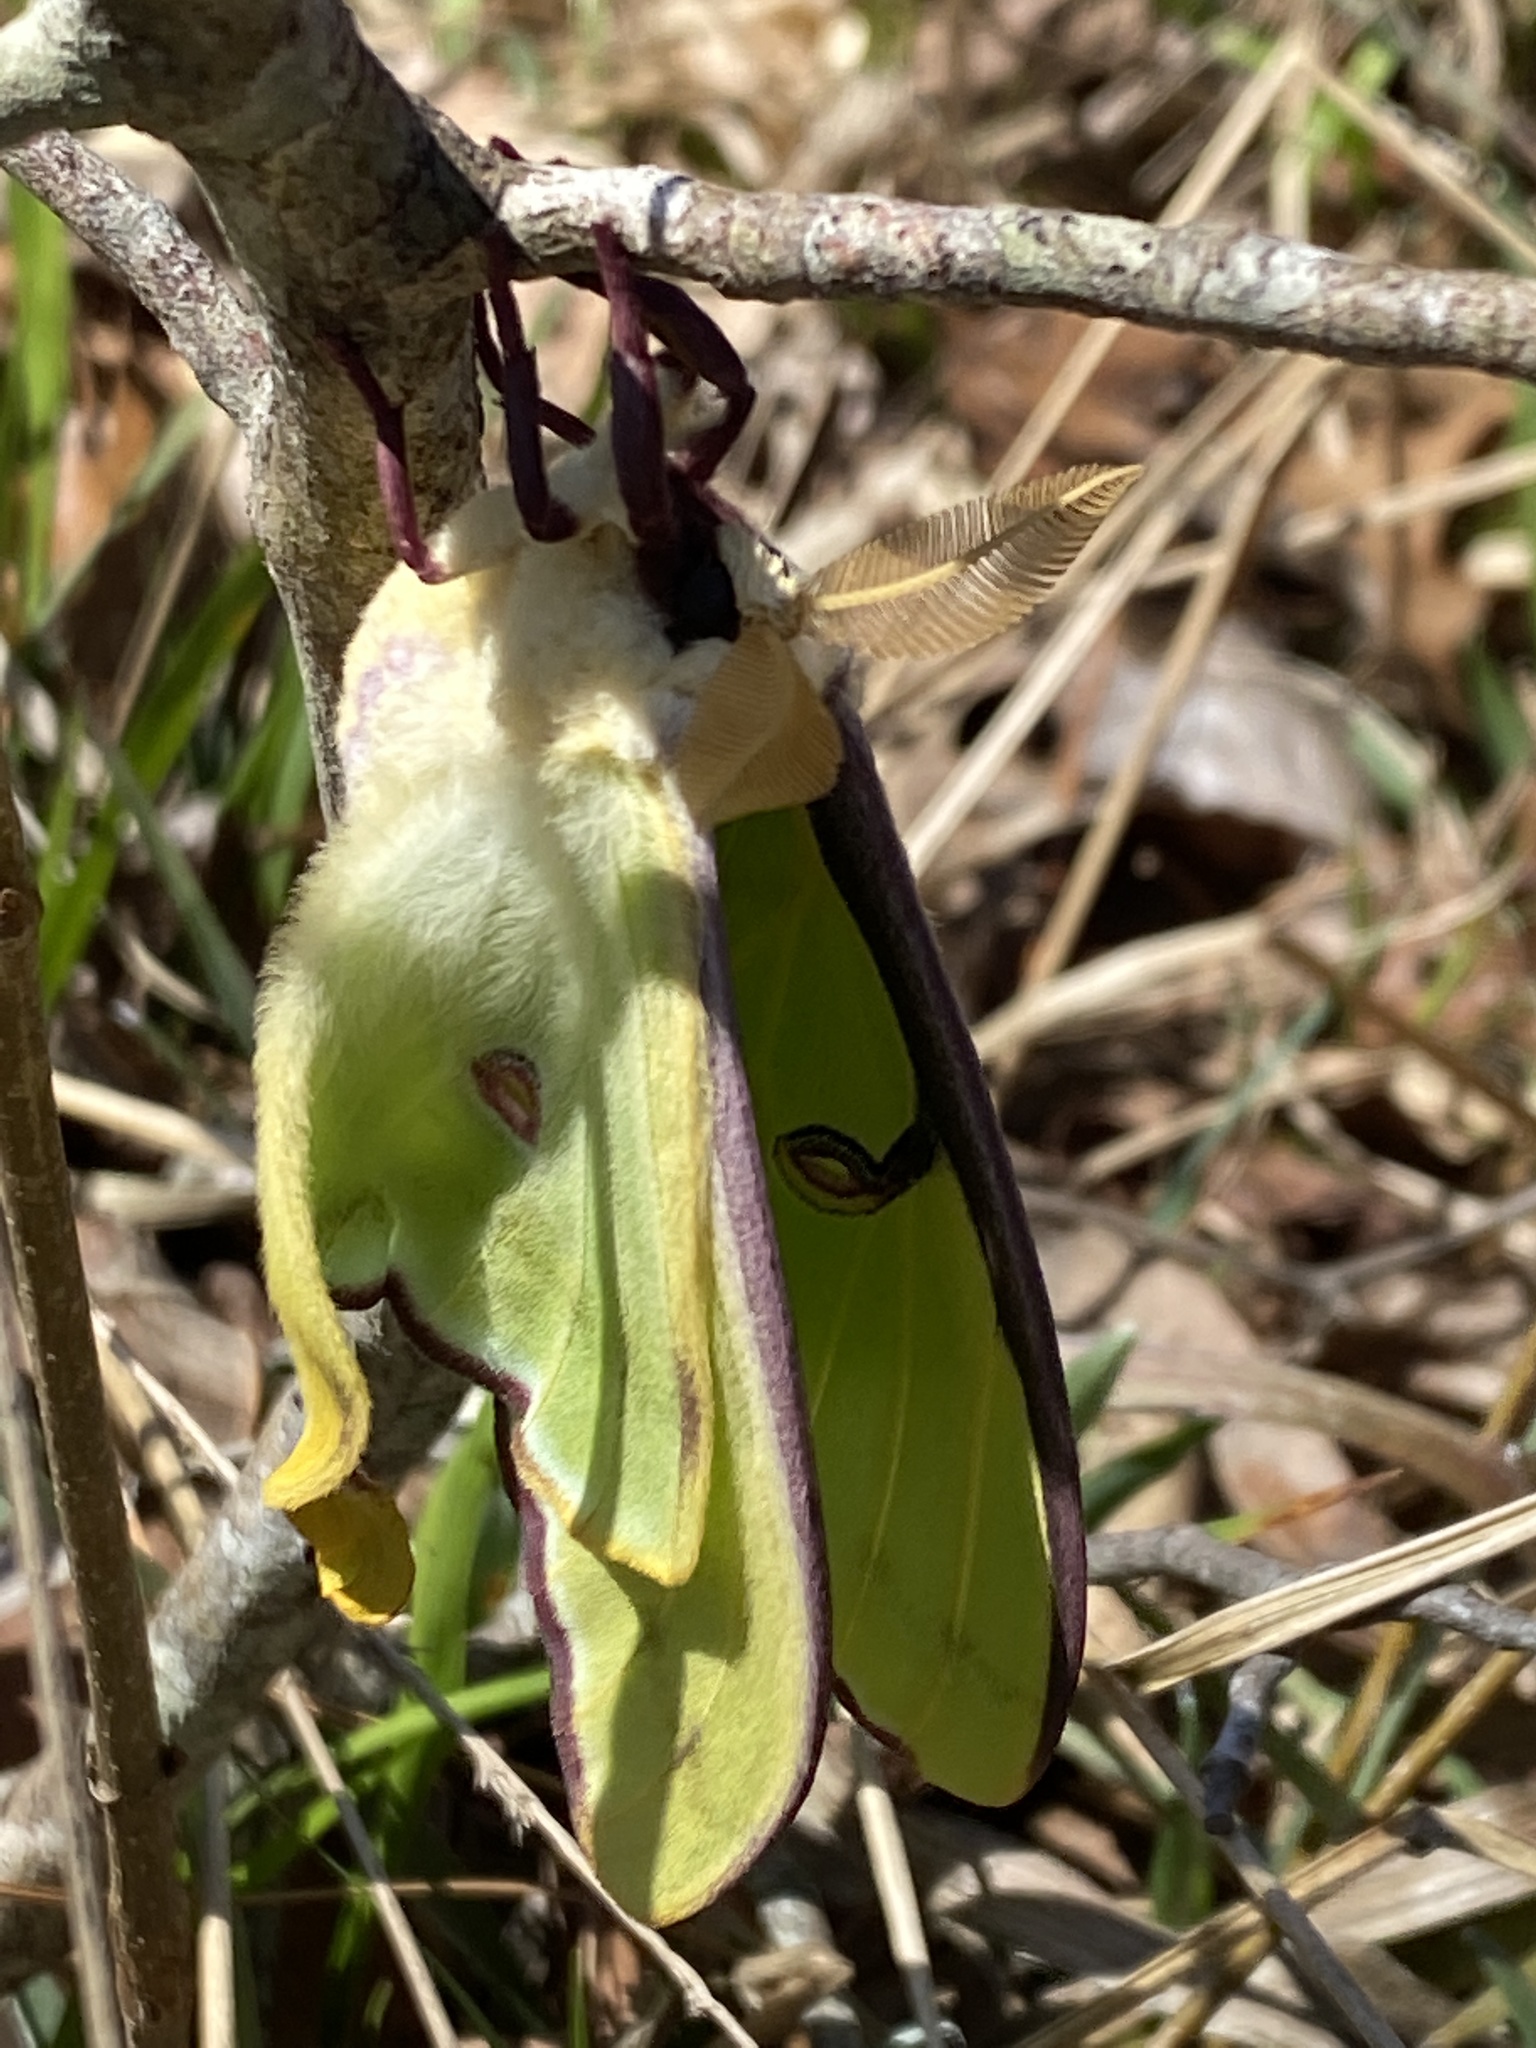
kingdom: Animalia
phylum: Arthropoda
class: Insecta
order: Lepidoptera
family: Saturniidae
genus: Actias
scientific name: Actias luna
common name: Luna moth
